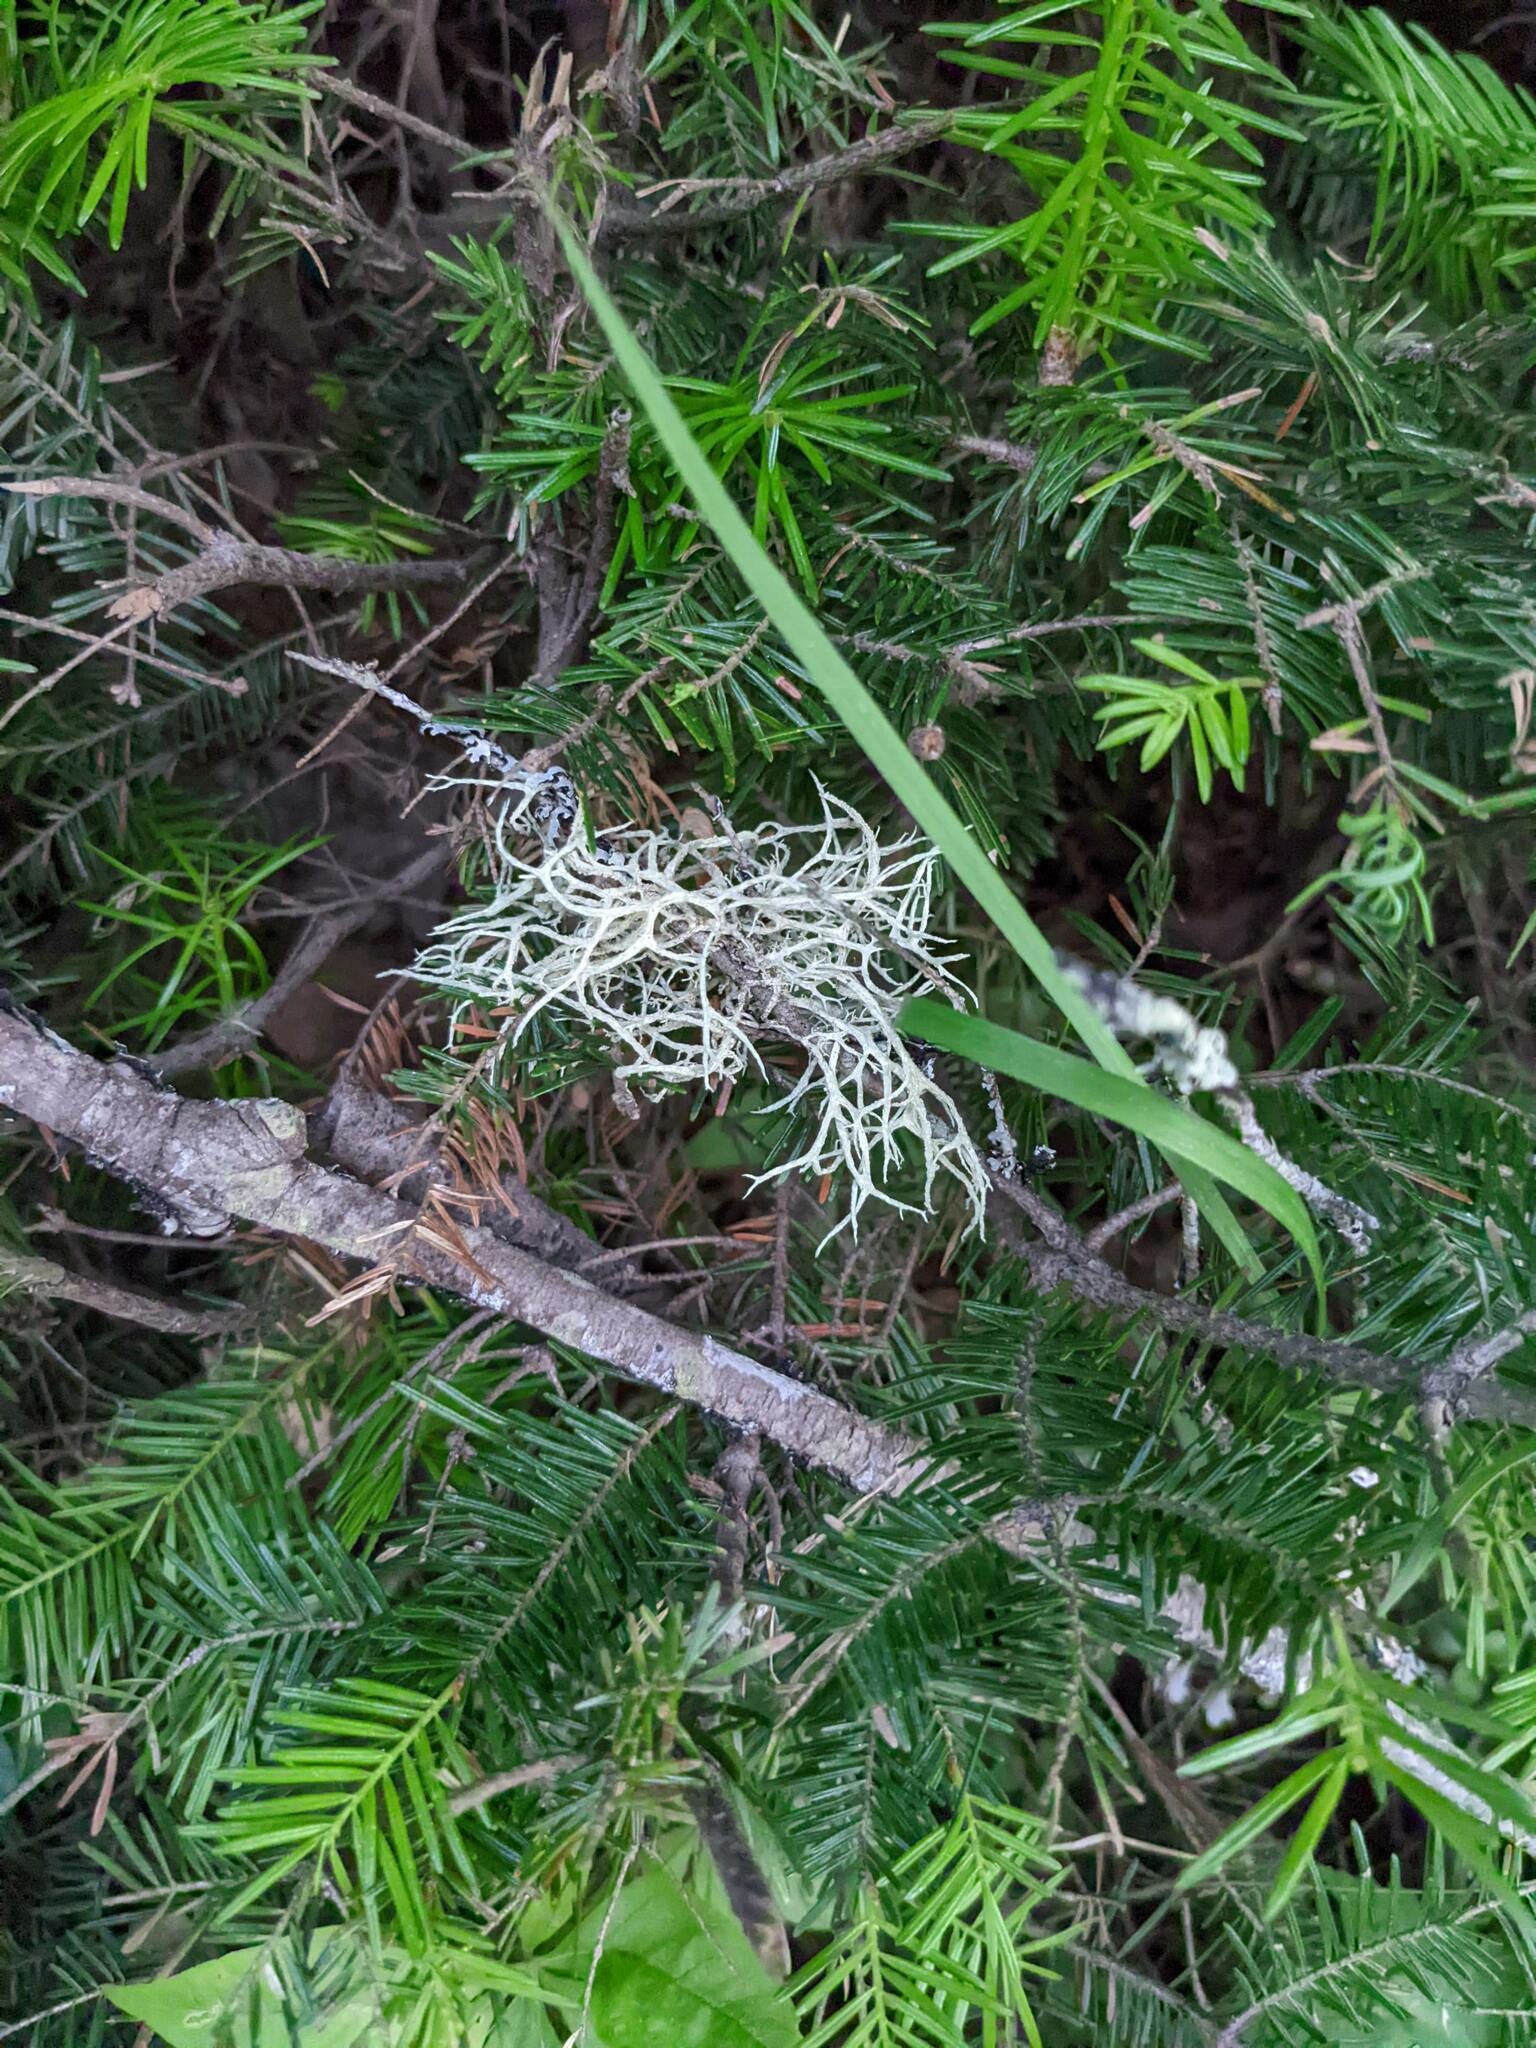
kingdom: Fungi
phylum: Ascomycota
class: Lecanoromycetes
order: Lecanorales
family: Parmeliaceae
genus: Evernia
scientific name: Evernia mesomorpha
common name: Boreal oak moss lichen
